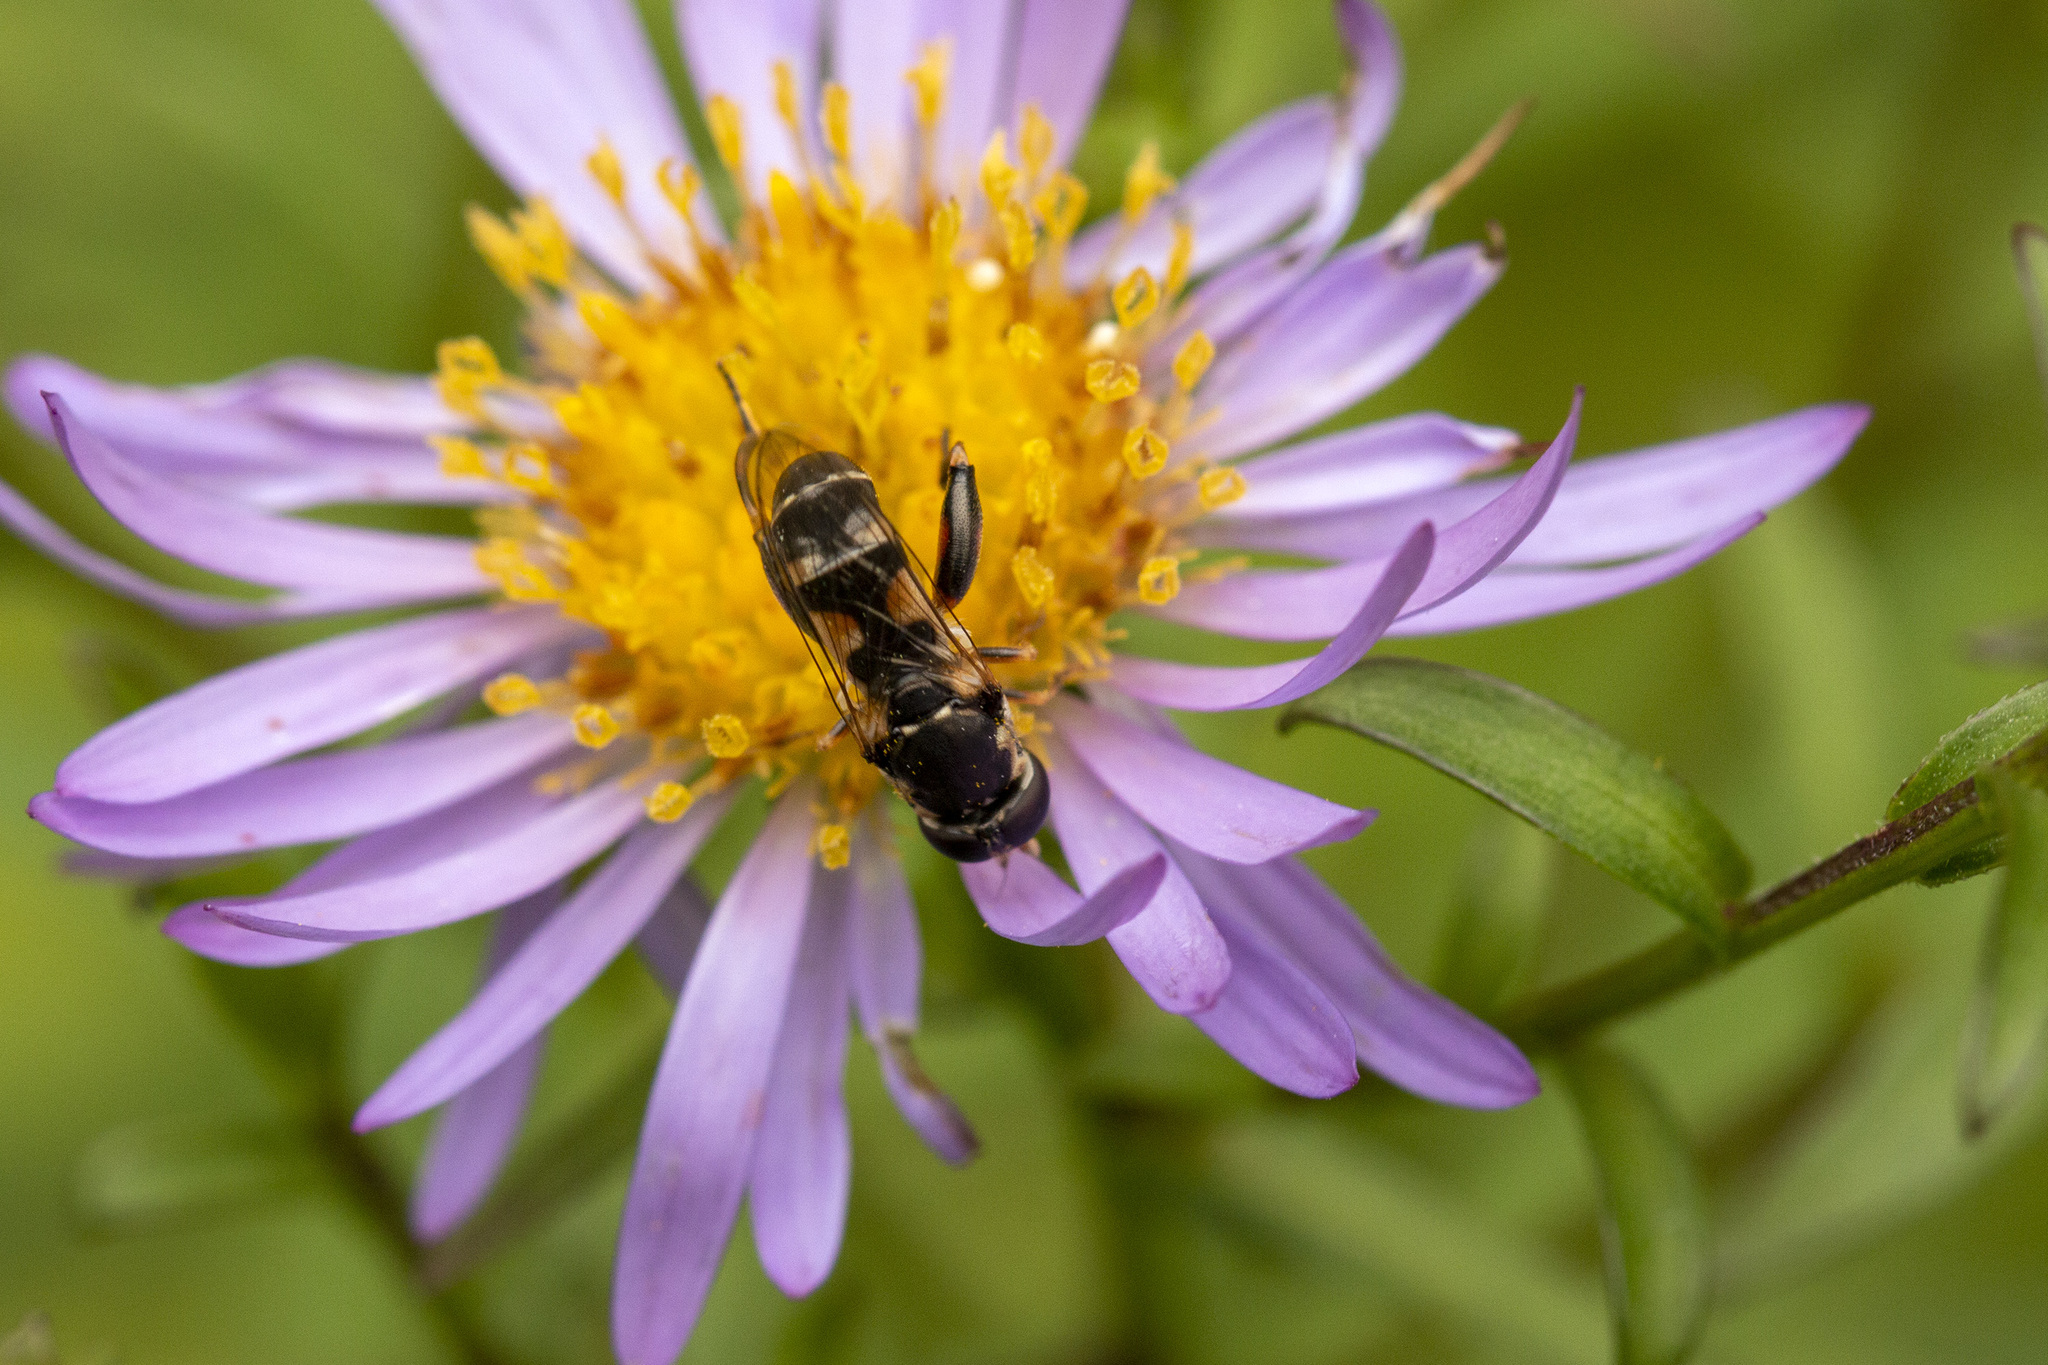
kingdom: Animalia
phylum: Arthropoda
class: Insecta
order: Diptera
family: Syrphidae
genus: Syritta
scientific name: Syritta pipiens
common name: Hover fly
